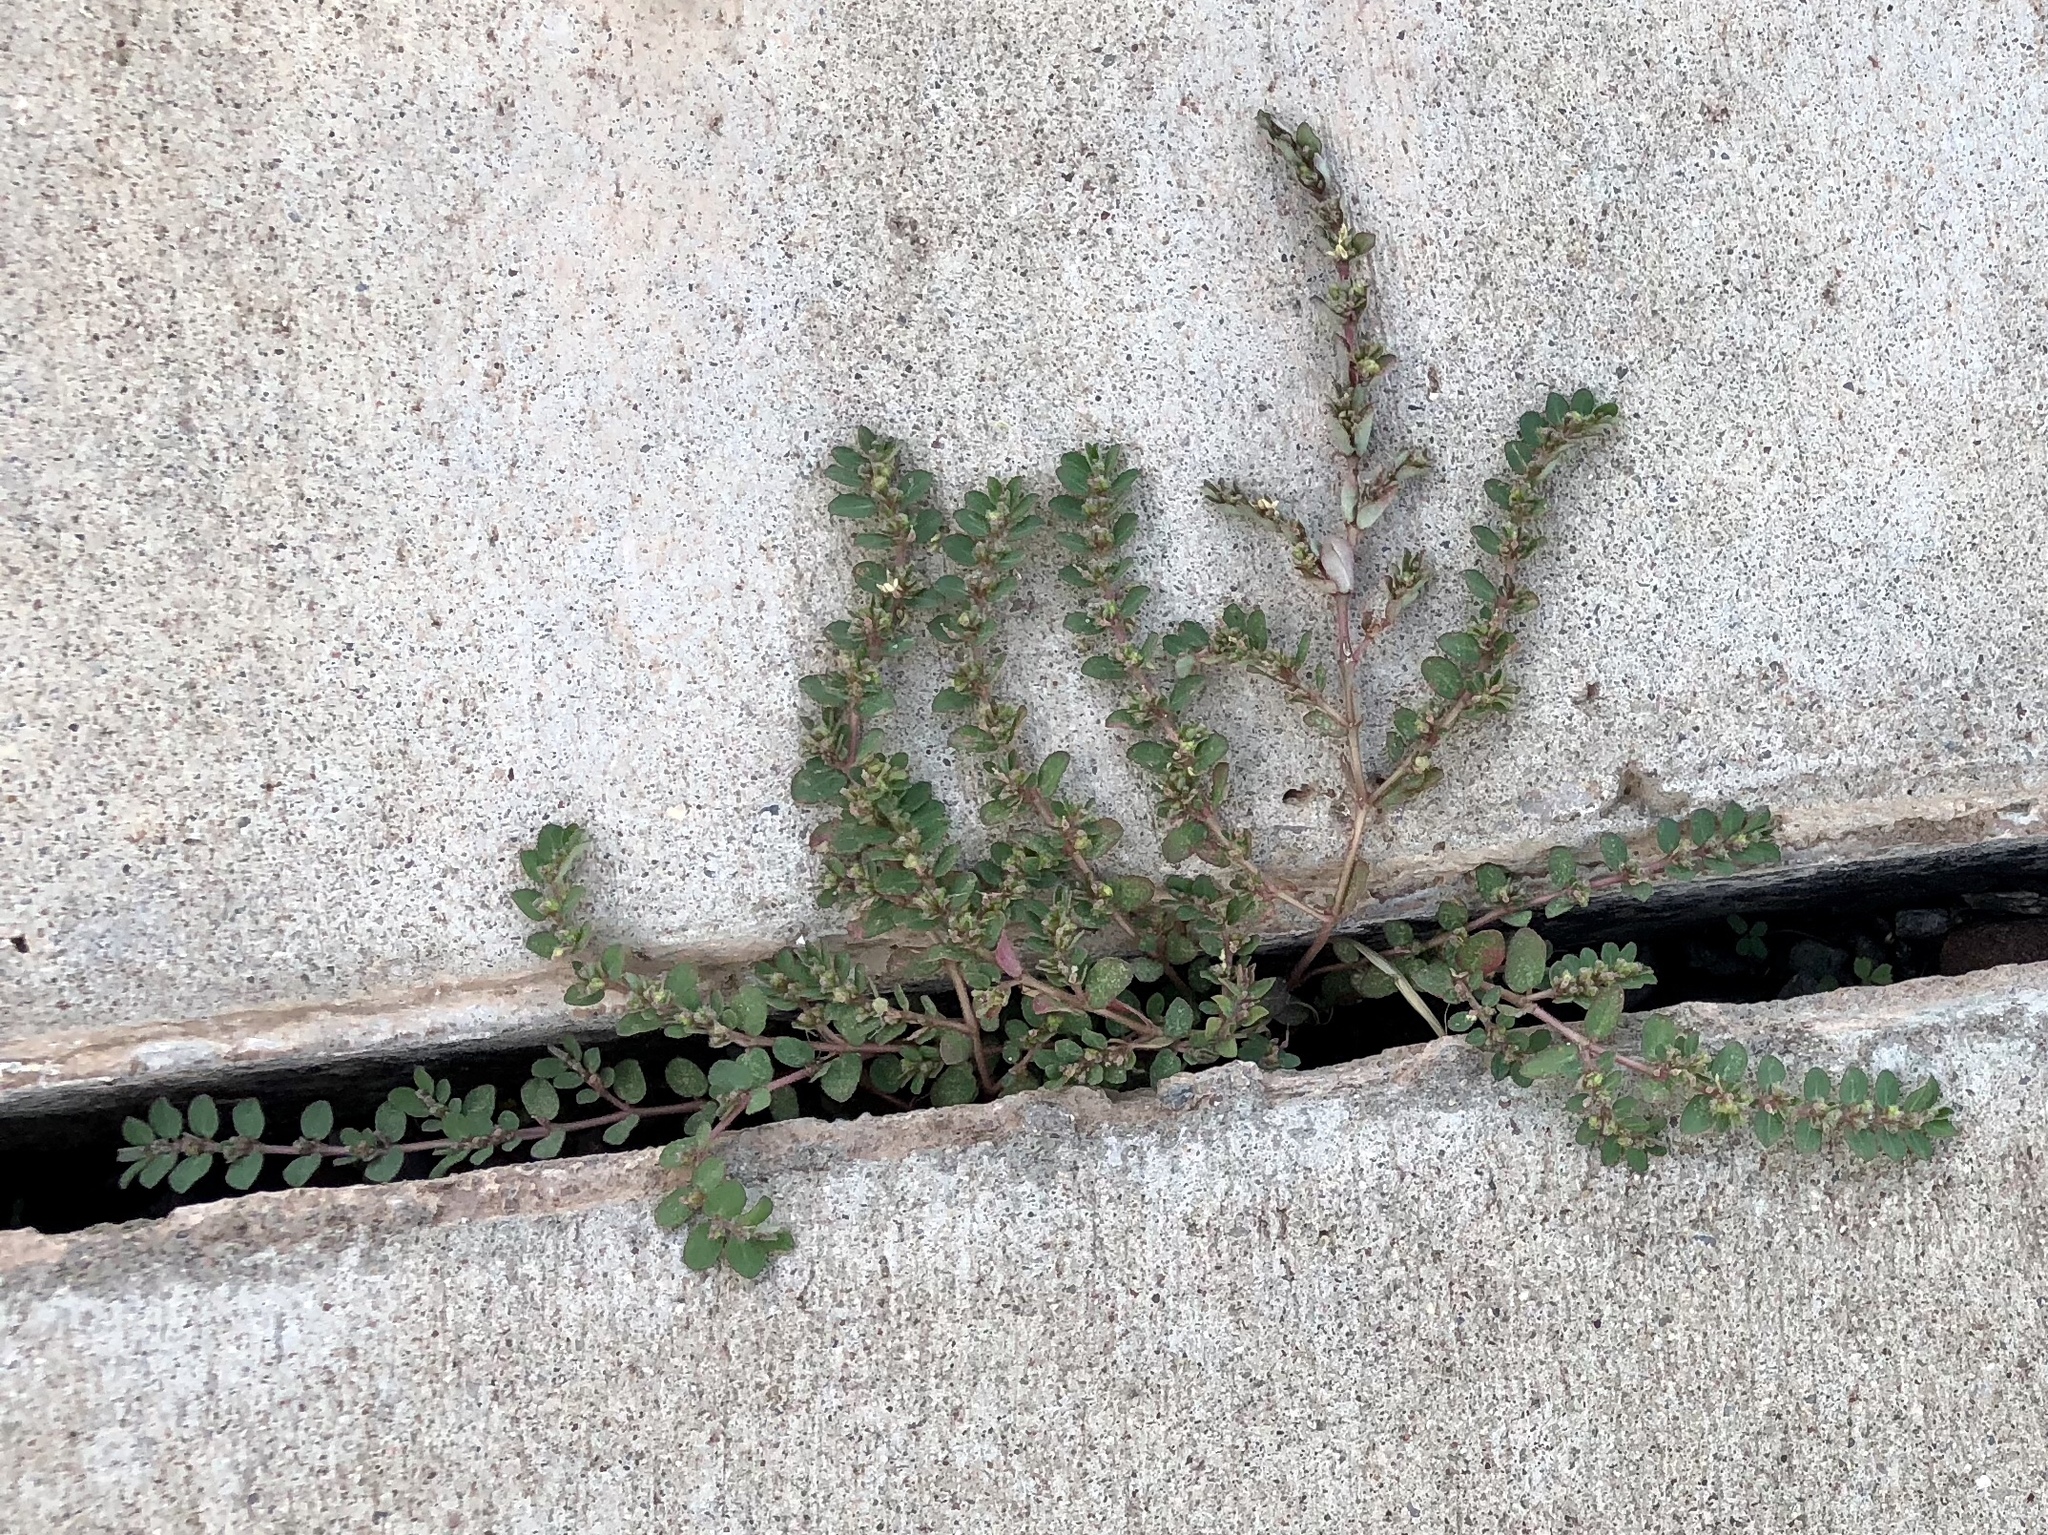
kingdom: Plantae
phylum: Tracheophyta
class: Magnoliopsida
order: Malpighiales
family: Euphorbiaceae
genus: Euphorbia
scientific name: Euphorbia prostrata
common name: Prostrate sandmat
